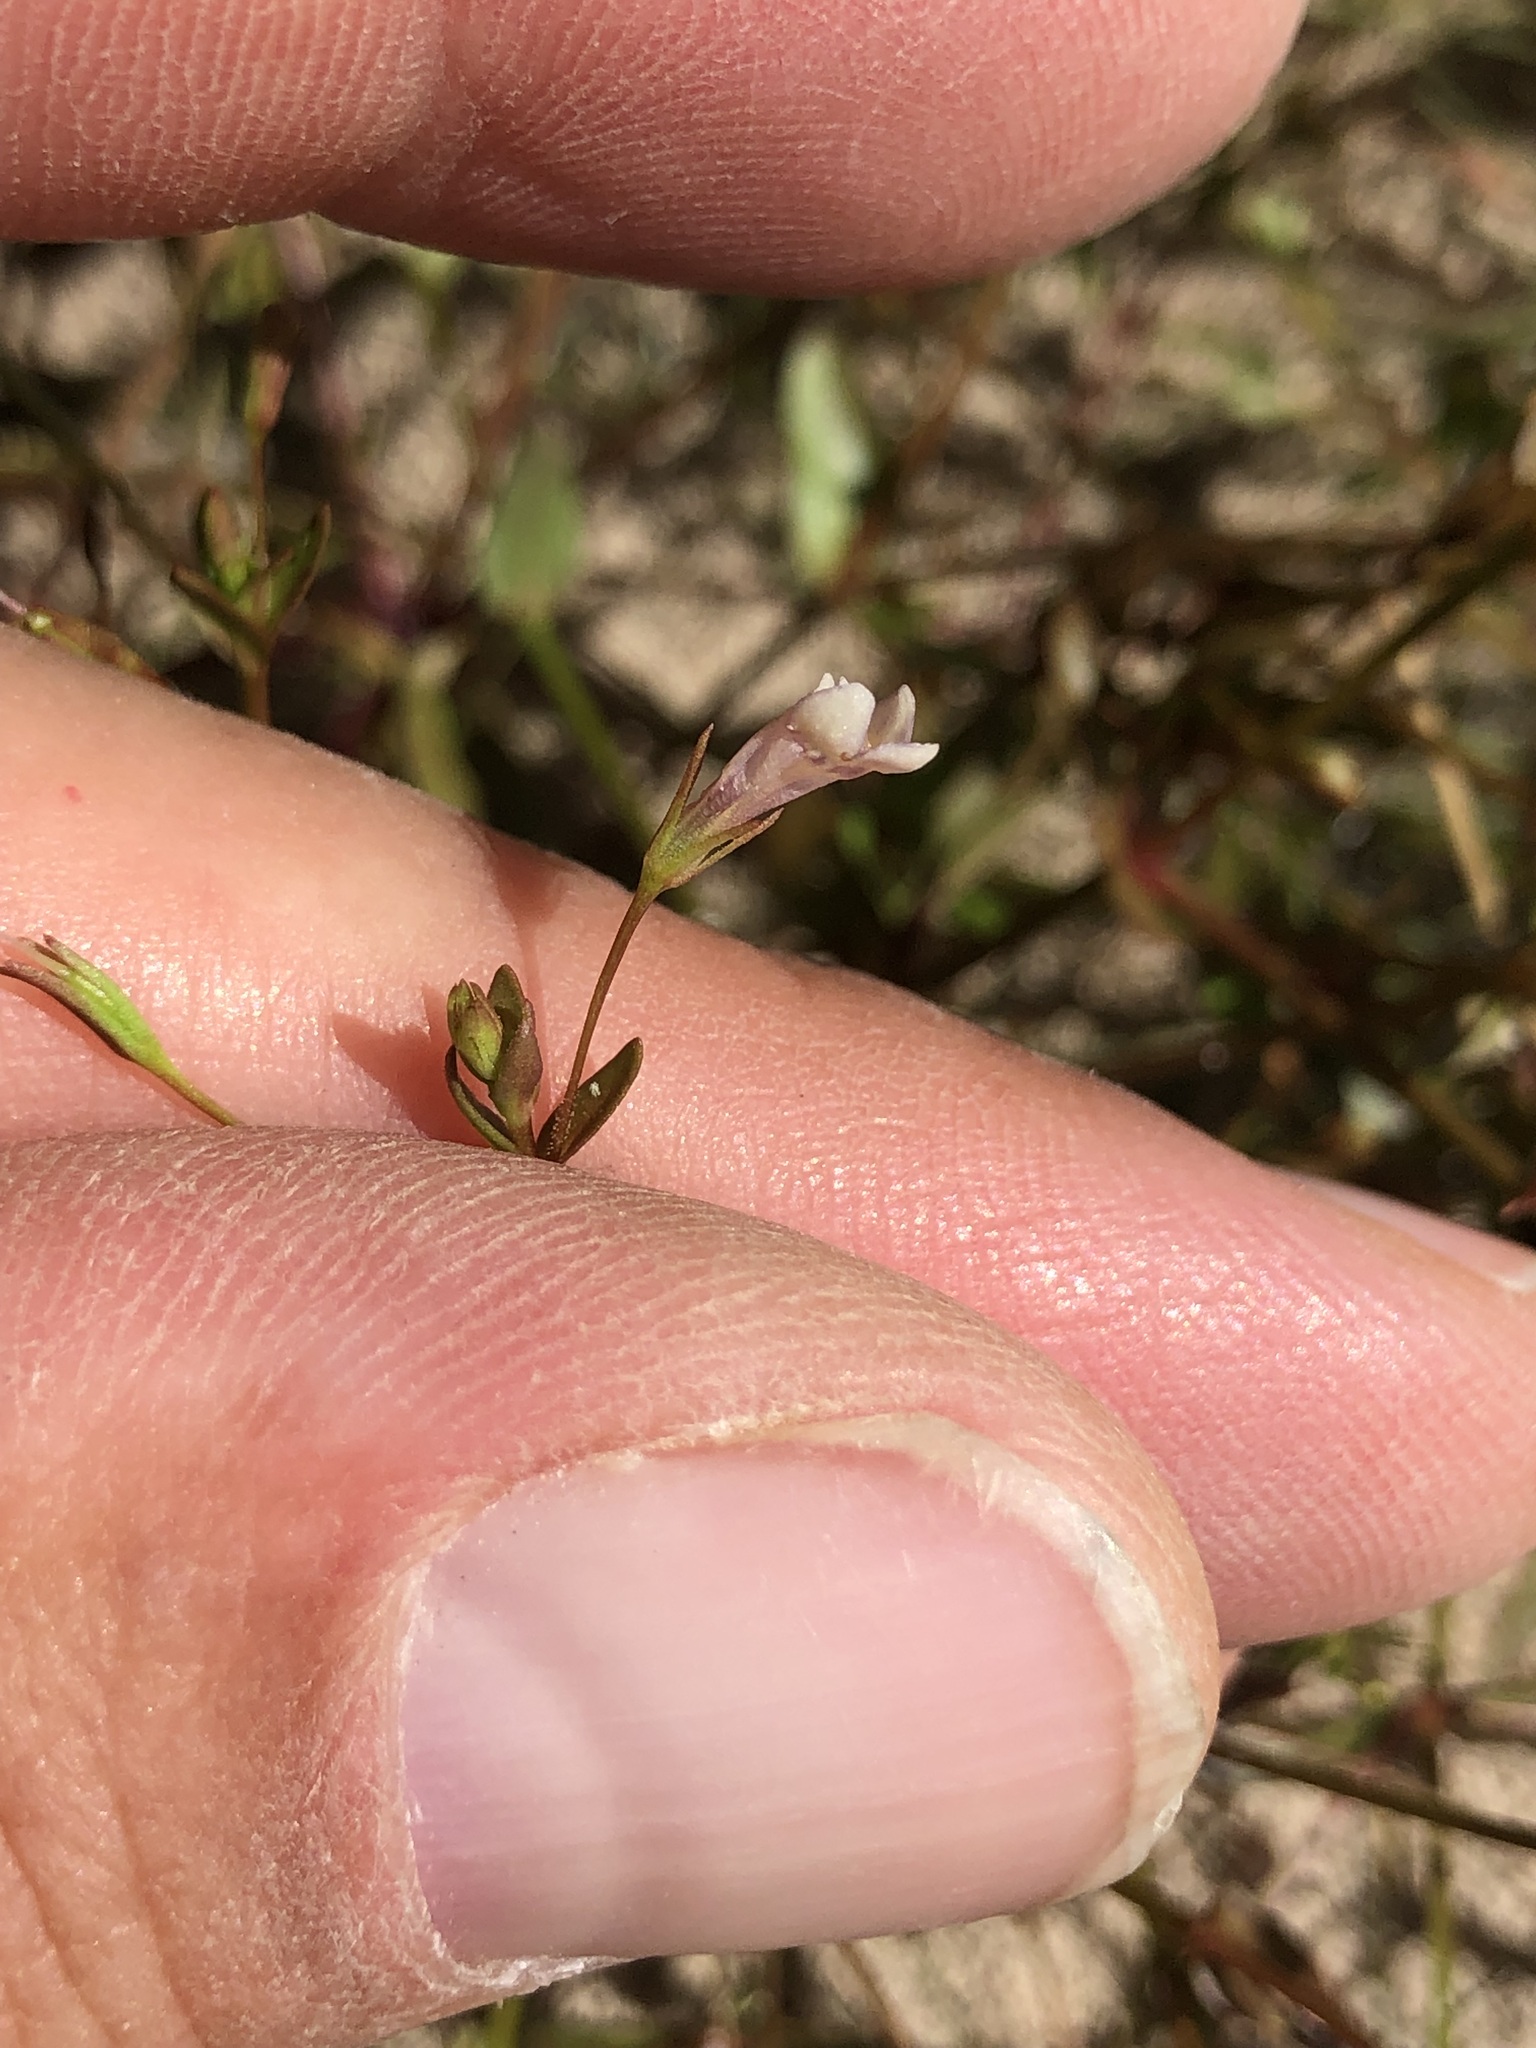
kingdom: Plantae
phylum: Tracheophyta
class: Magnoliopsida
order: Lamiales
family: Linderniaceae
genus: Lindernia
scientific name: Lindernia dubia
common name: Annual false pimpernel
